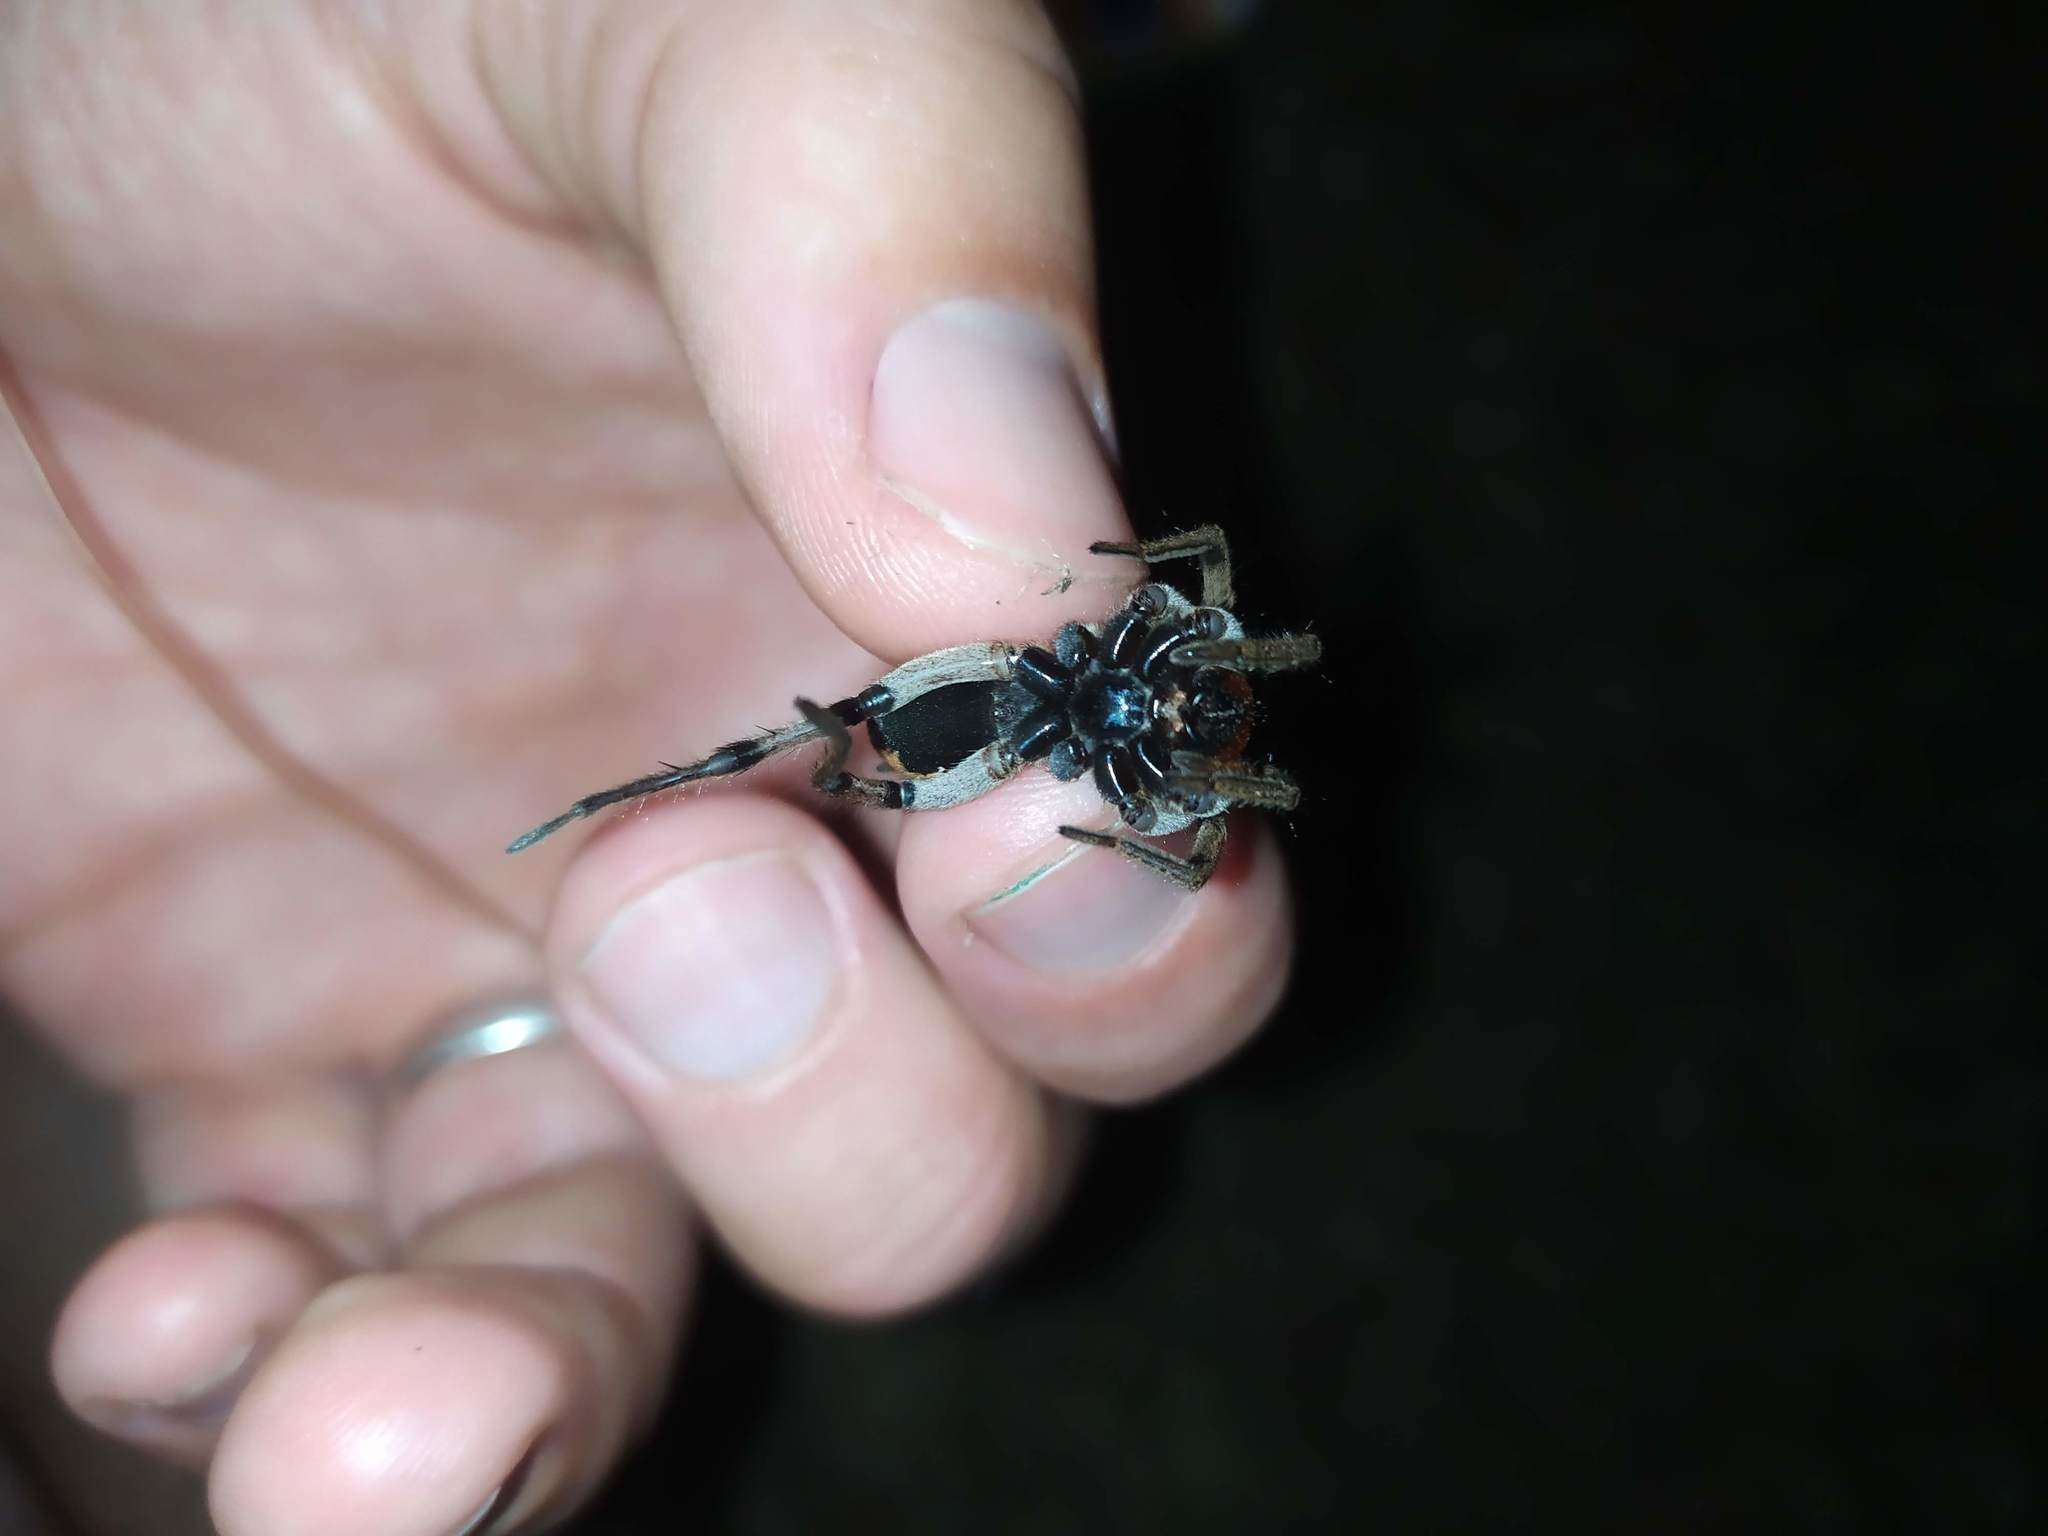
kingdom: Animalia
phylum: Arthropoda
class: Arachnida
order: Araneae
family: Lycosidae
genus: Lycosa
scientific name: Lycosa erythrognatha
